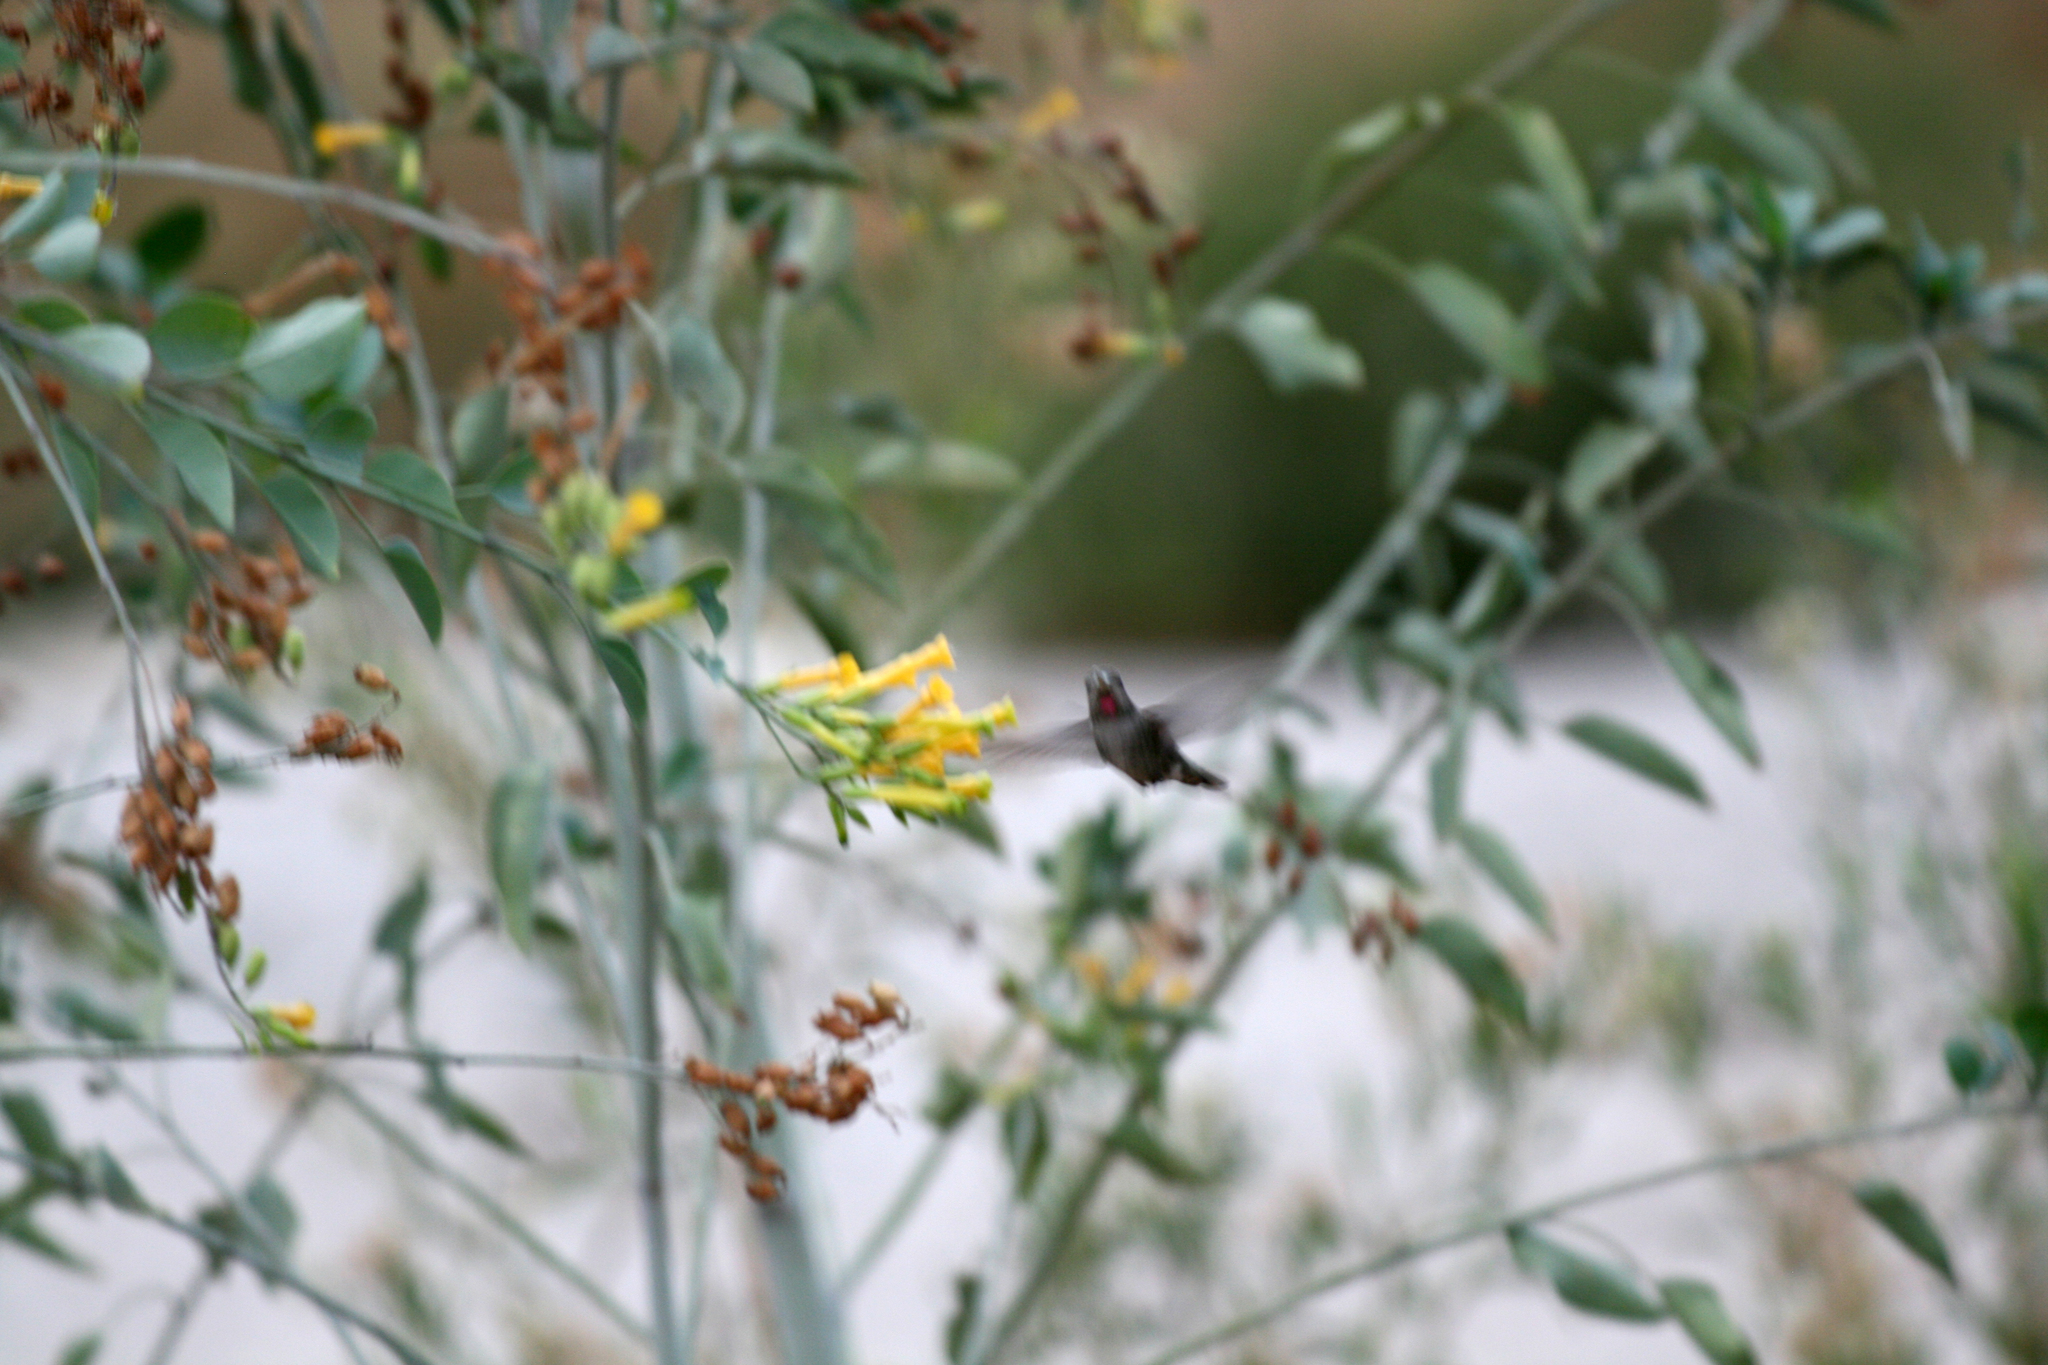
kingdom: Animalia
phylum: Chordata
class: Aves
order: Apodiformes
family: Trochilidae
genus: Calypte
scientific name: Calypte anna
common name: Anna's hummingbird
